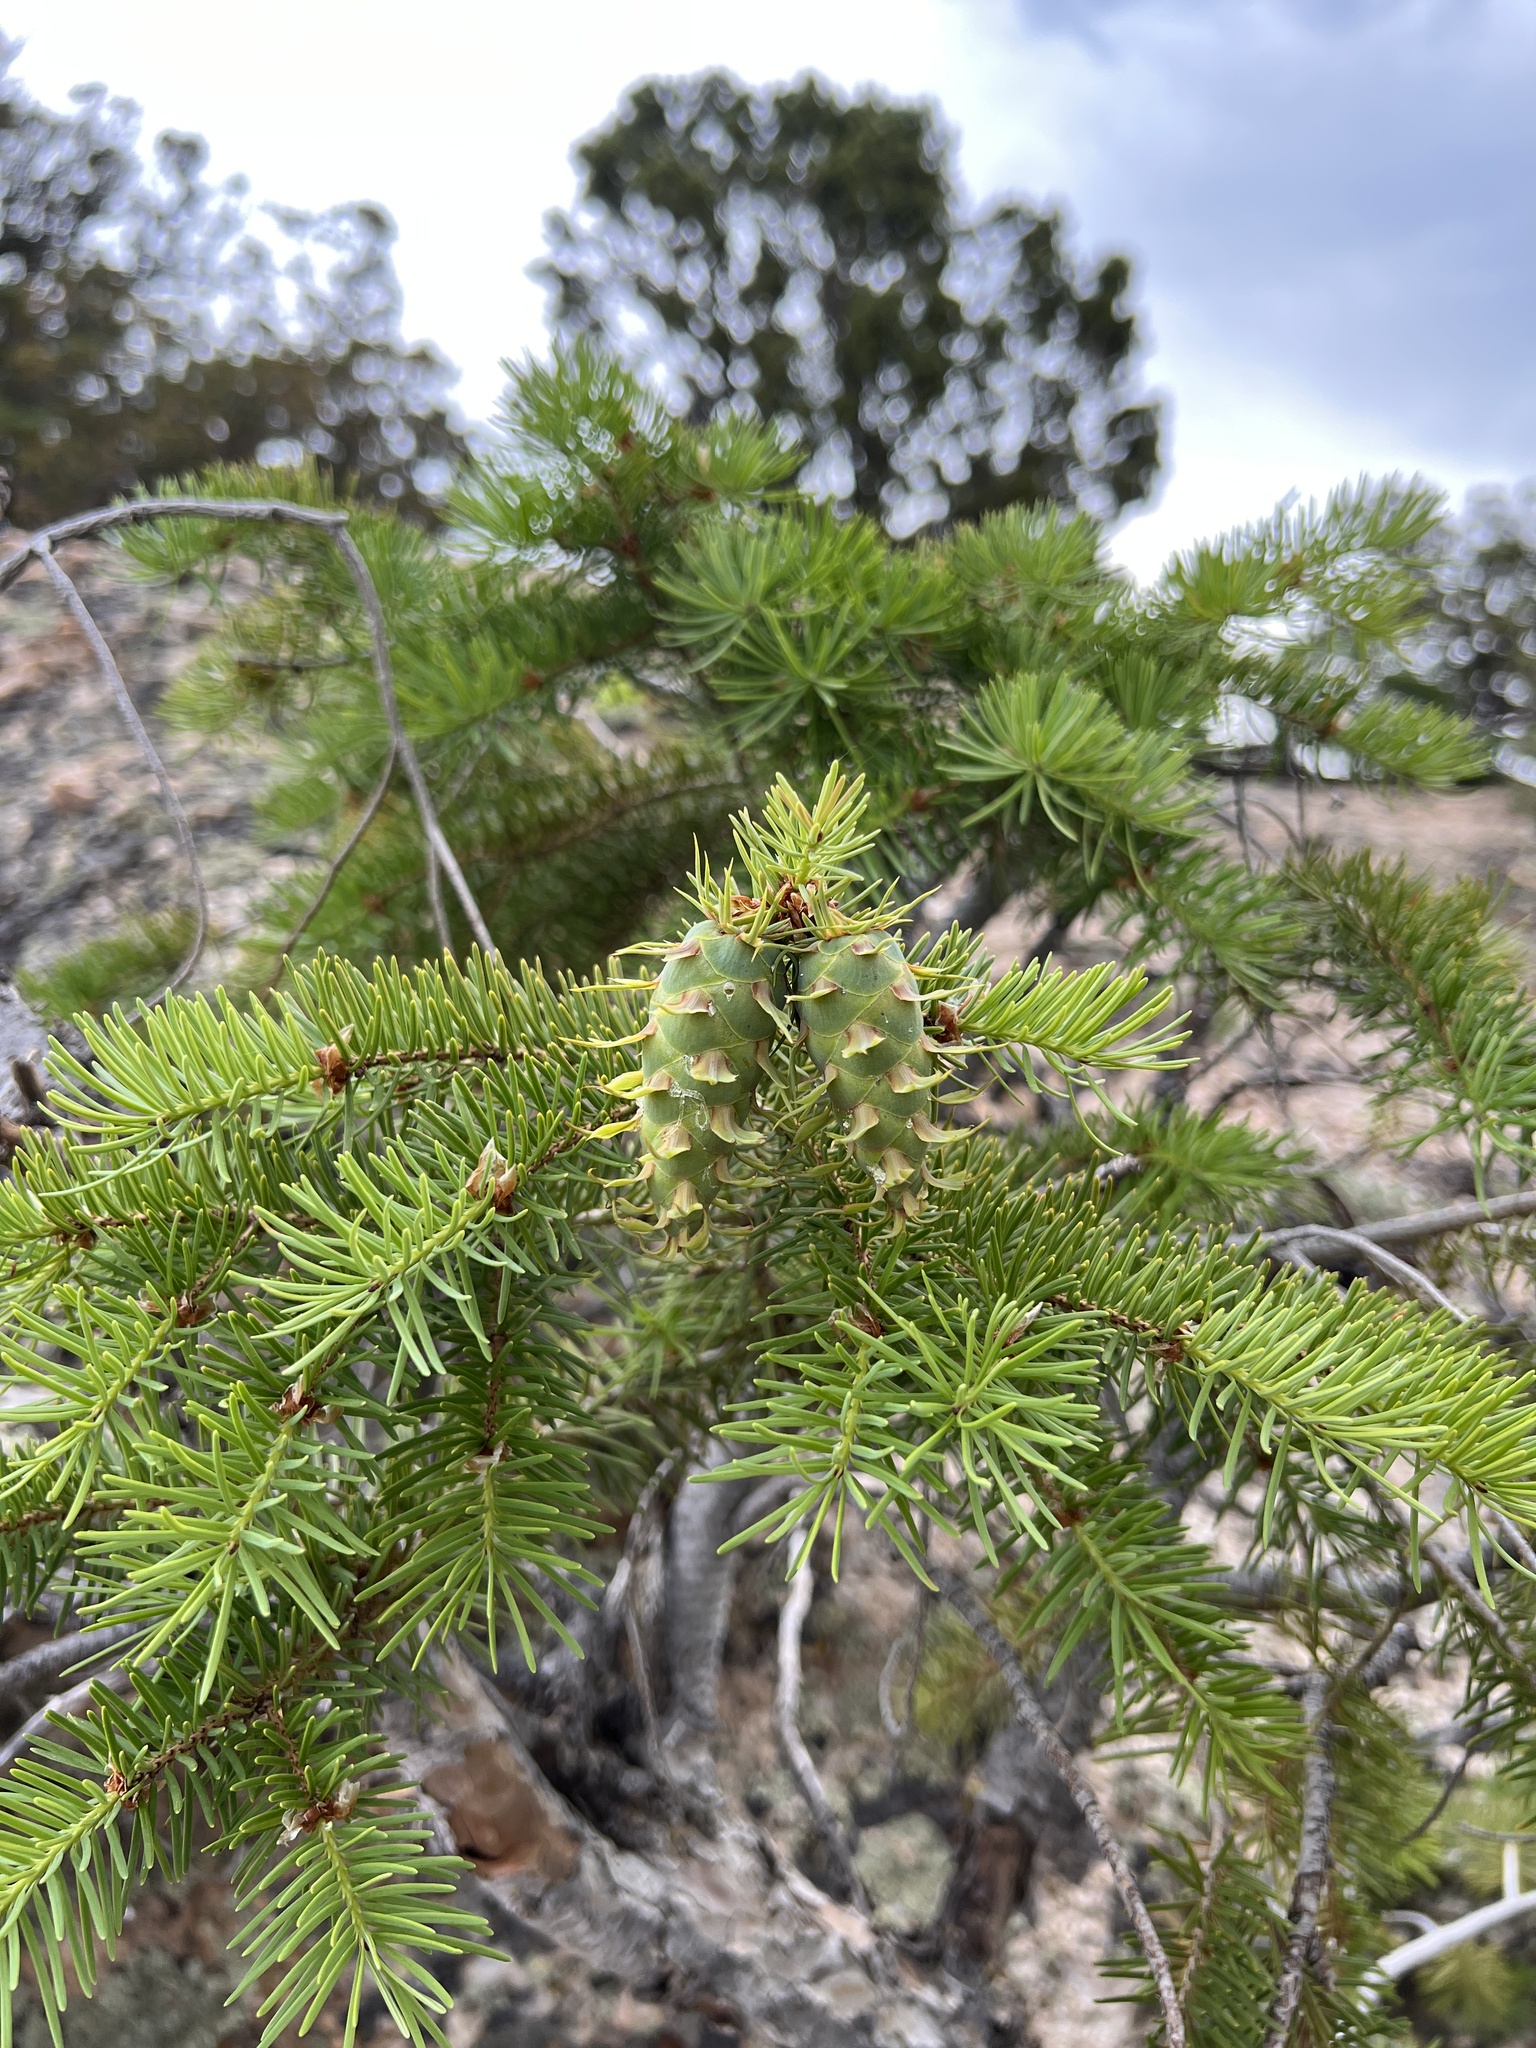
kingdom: Plantae
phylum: Tracheophyta
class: Pinopsida
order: Pinales
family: Pinaceae
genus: Pseudotsuga
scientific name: Pseudotsuga menziesii
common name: Douglas fir
